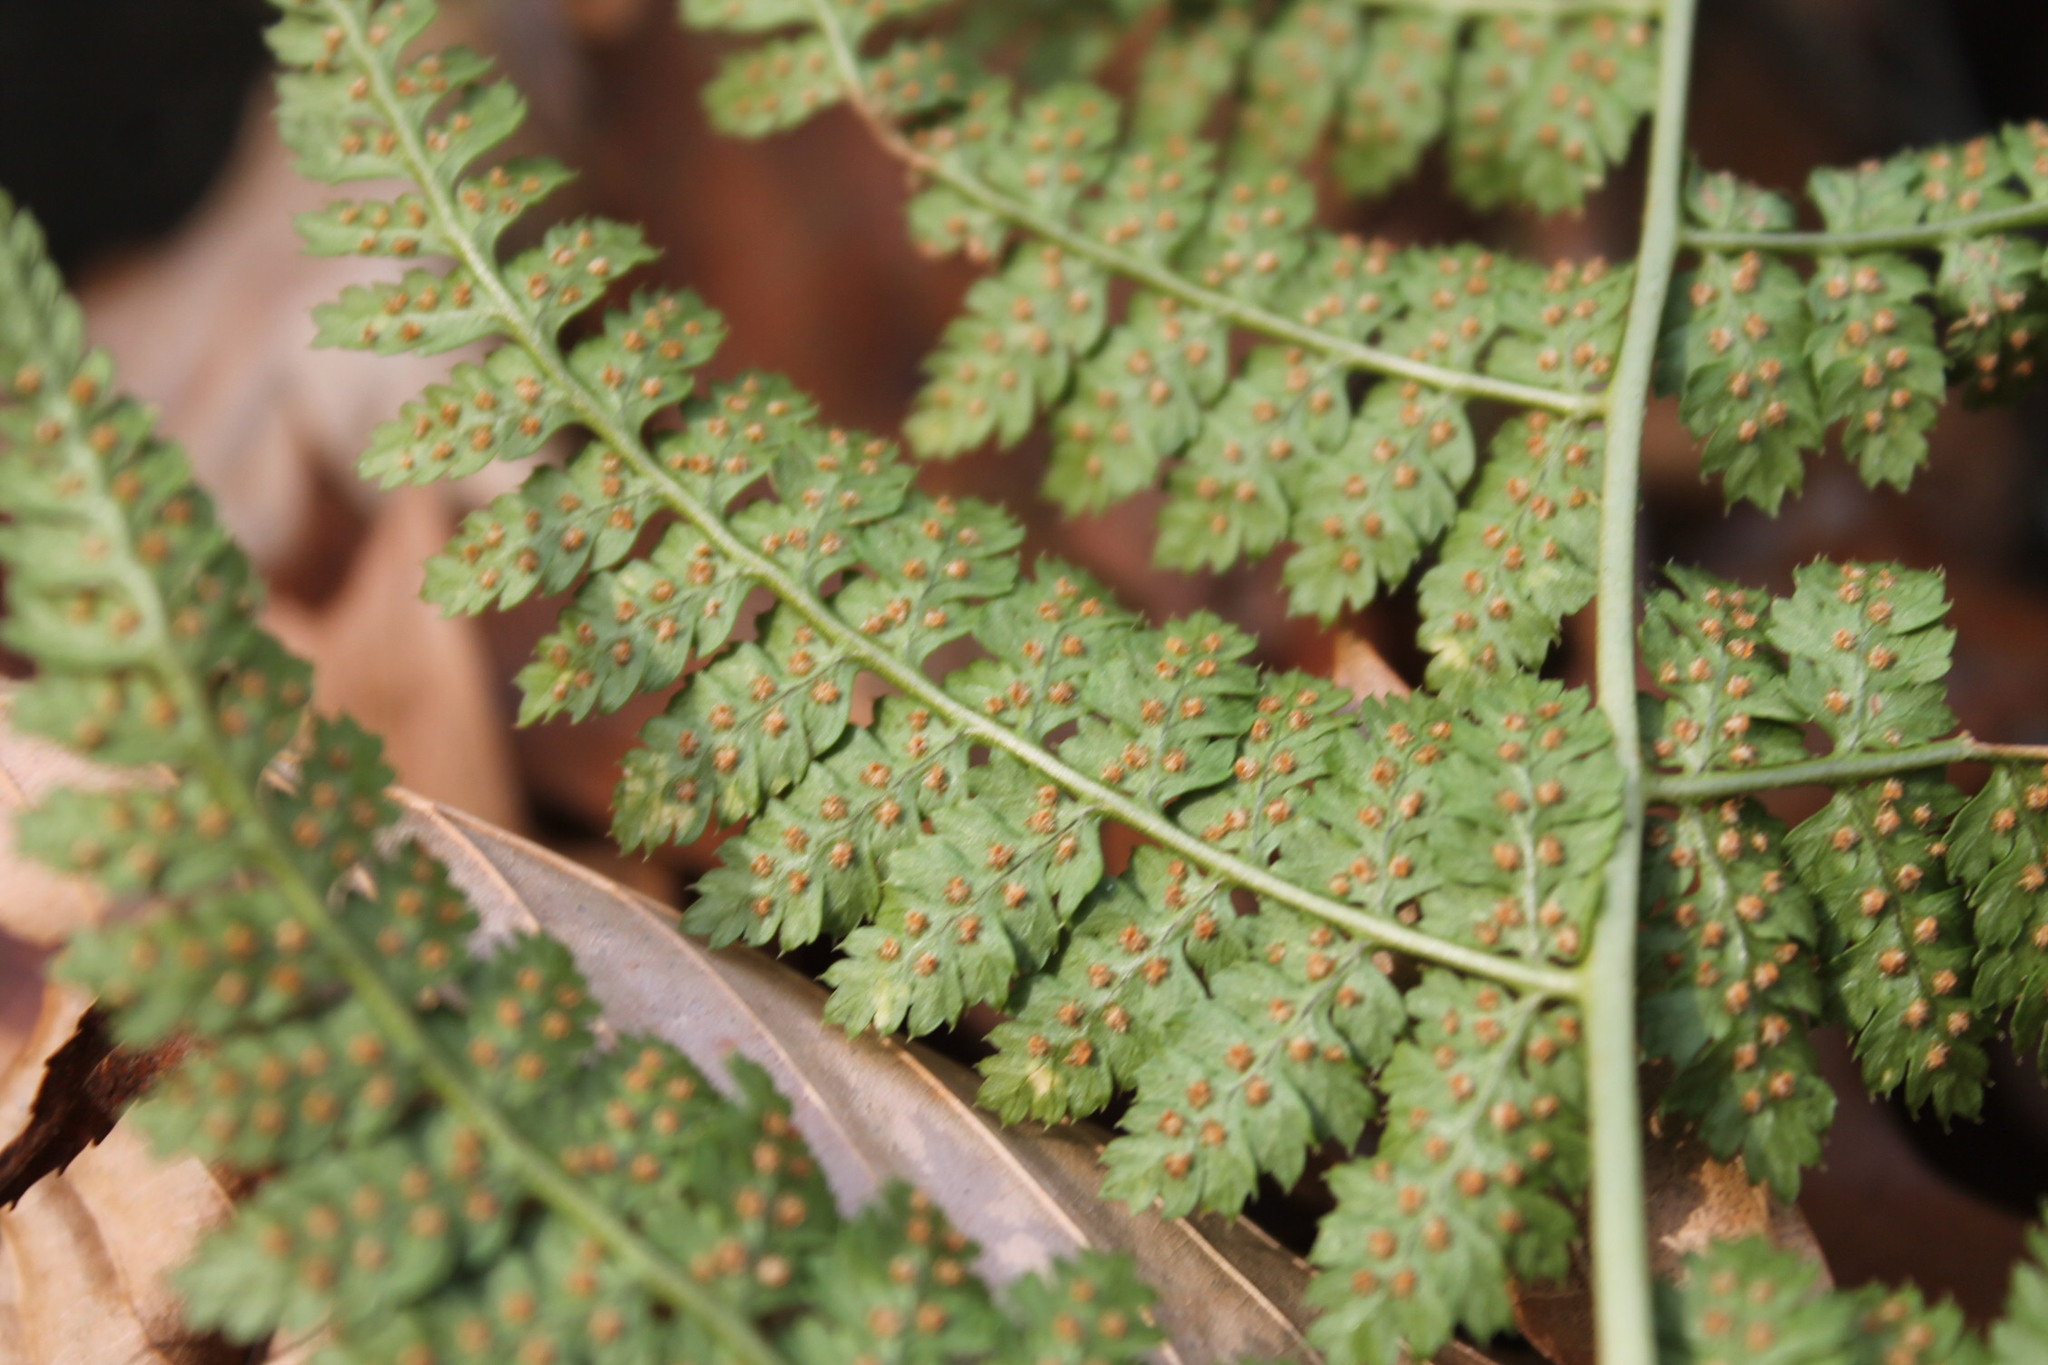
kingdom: Plantae
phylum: Tracheophyta
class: Polypodiopsida
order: Polypodiales
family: Dryopteridaceae
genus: Dryopteris
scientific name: Dryopteris intermedia
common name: Evergreen wood fern
